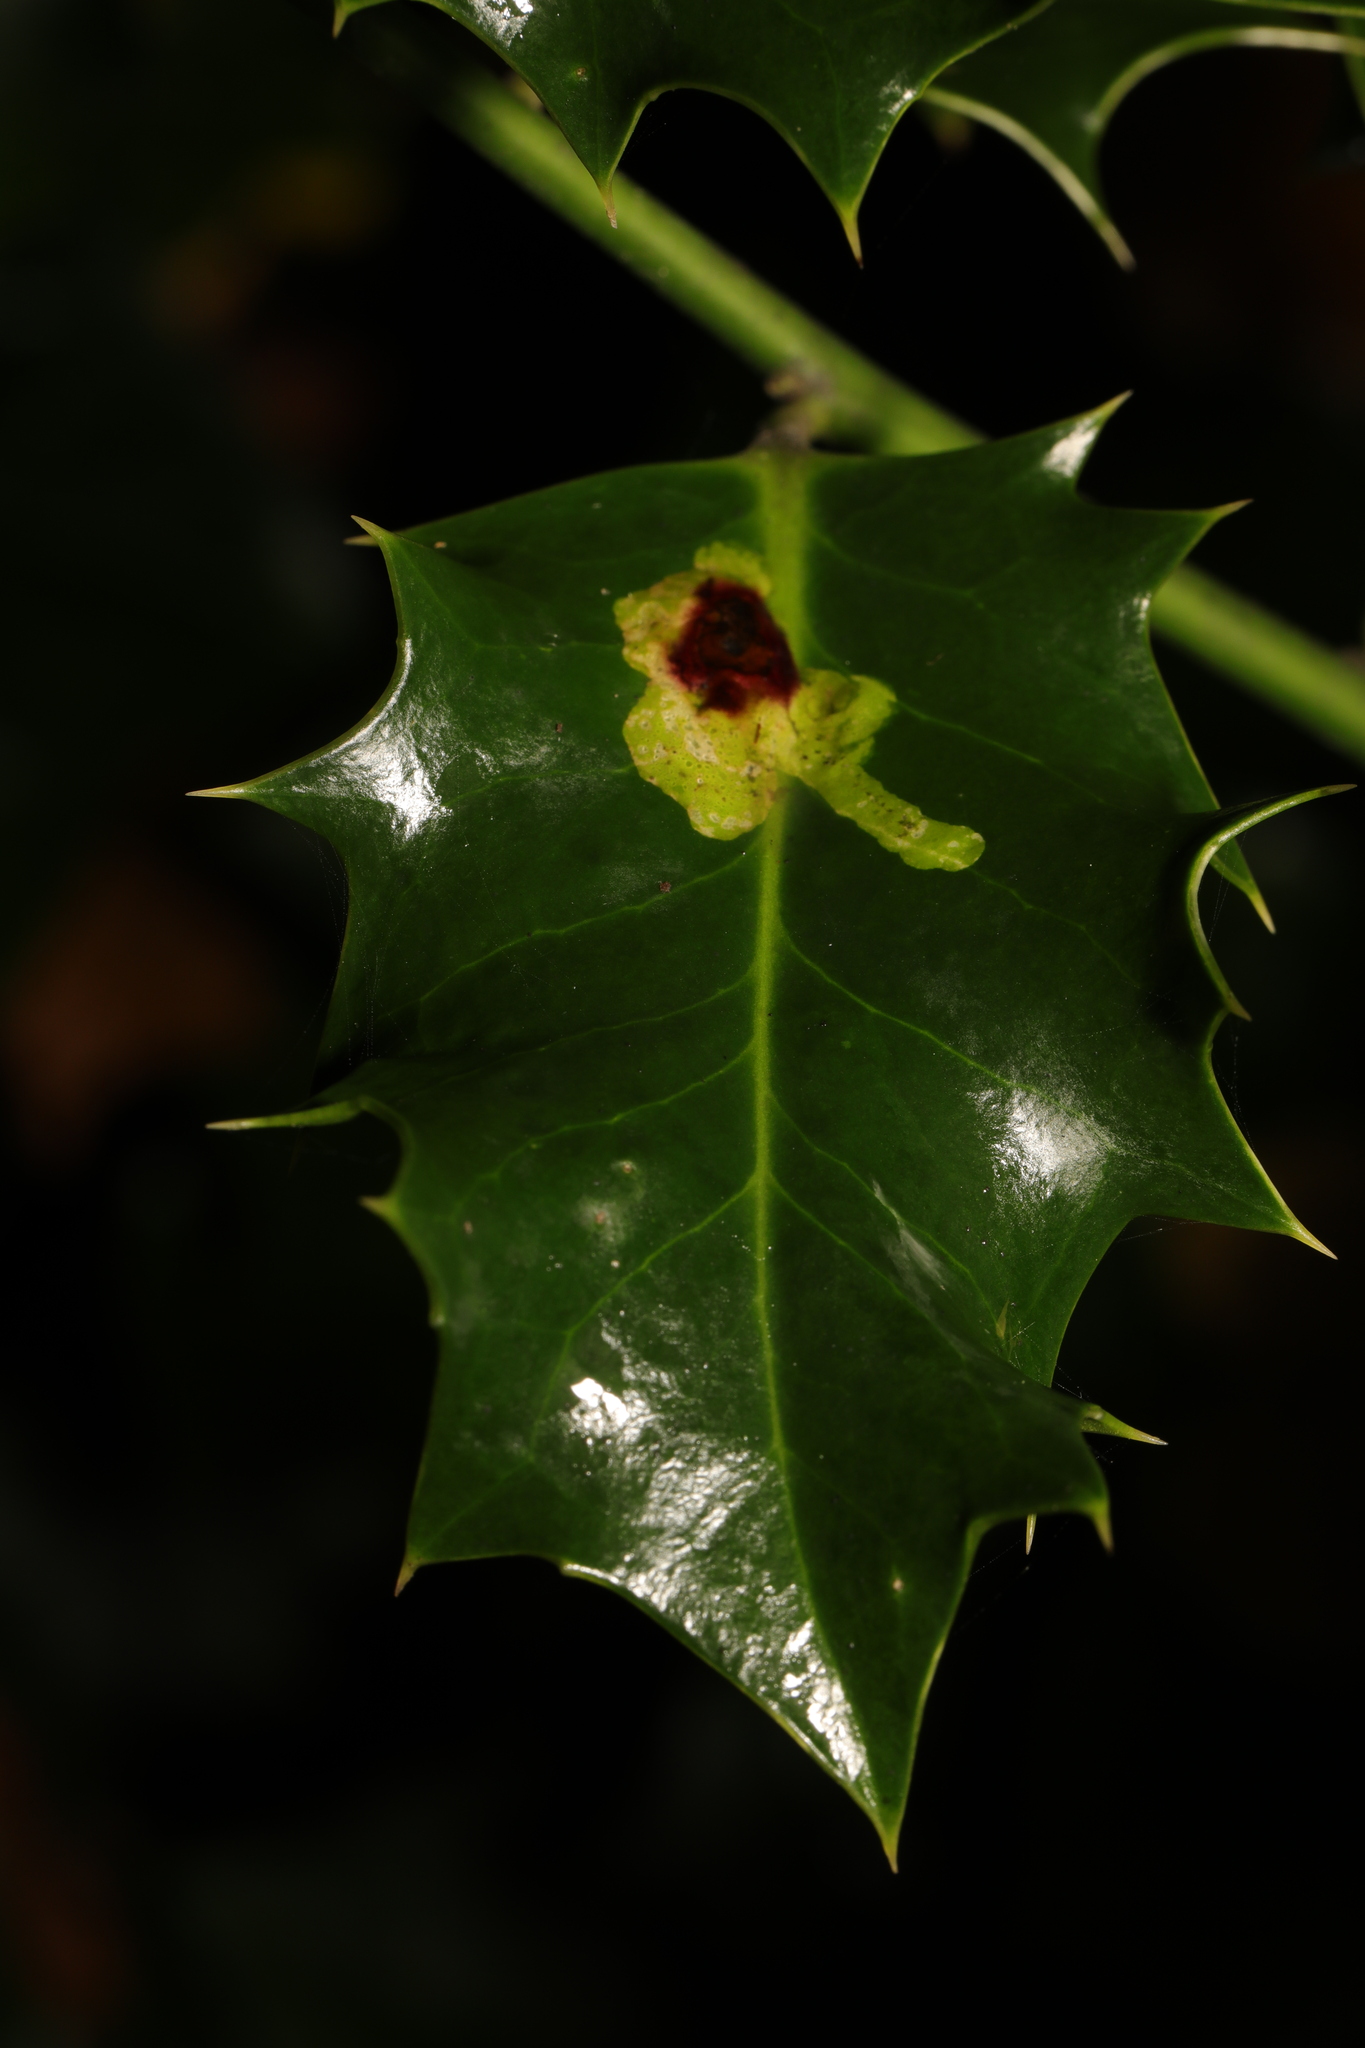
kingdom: Animalia
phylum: Arthropoda
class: Insecta
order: Diptera
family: Agromyzidae
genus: Phytomyza
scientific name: Phytomyza ilicis
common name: Holly leafminer
